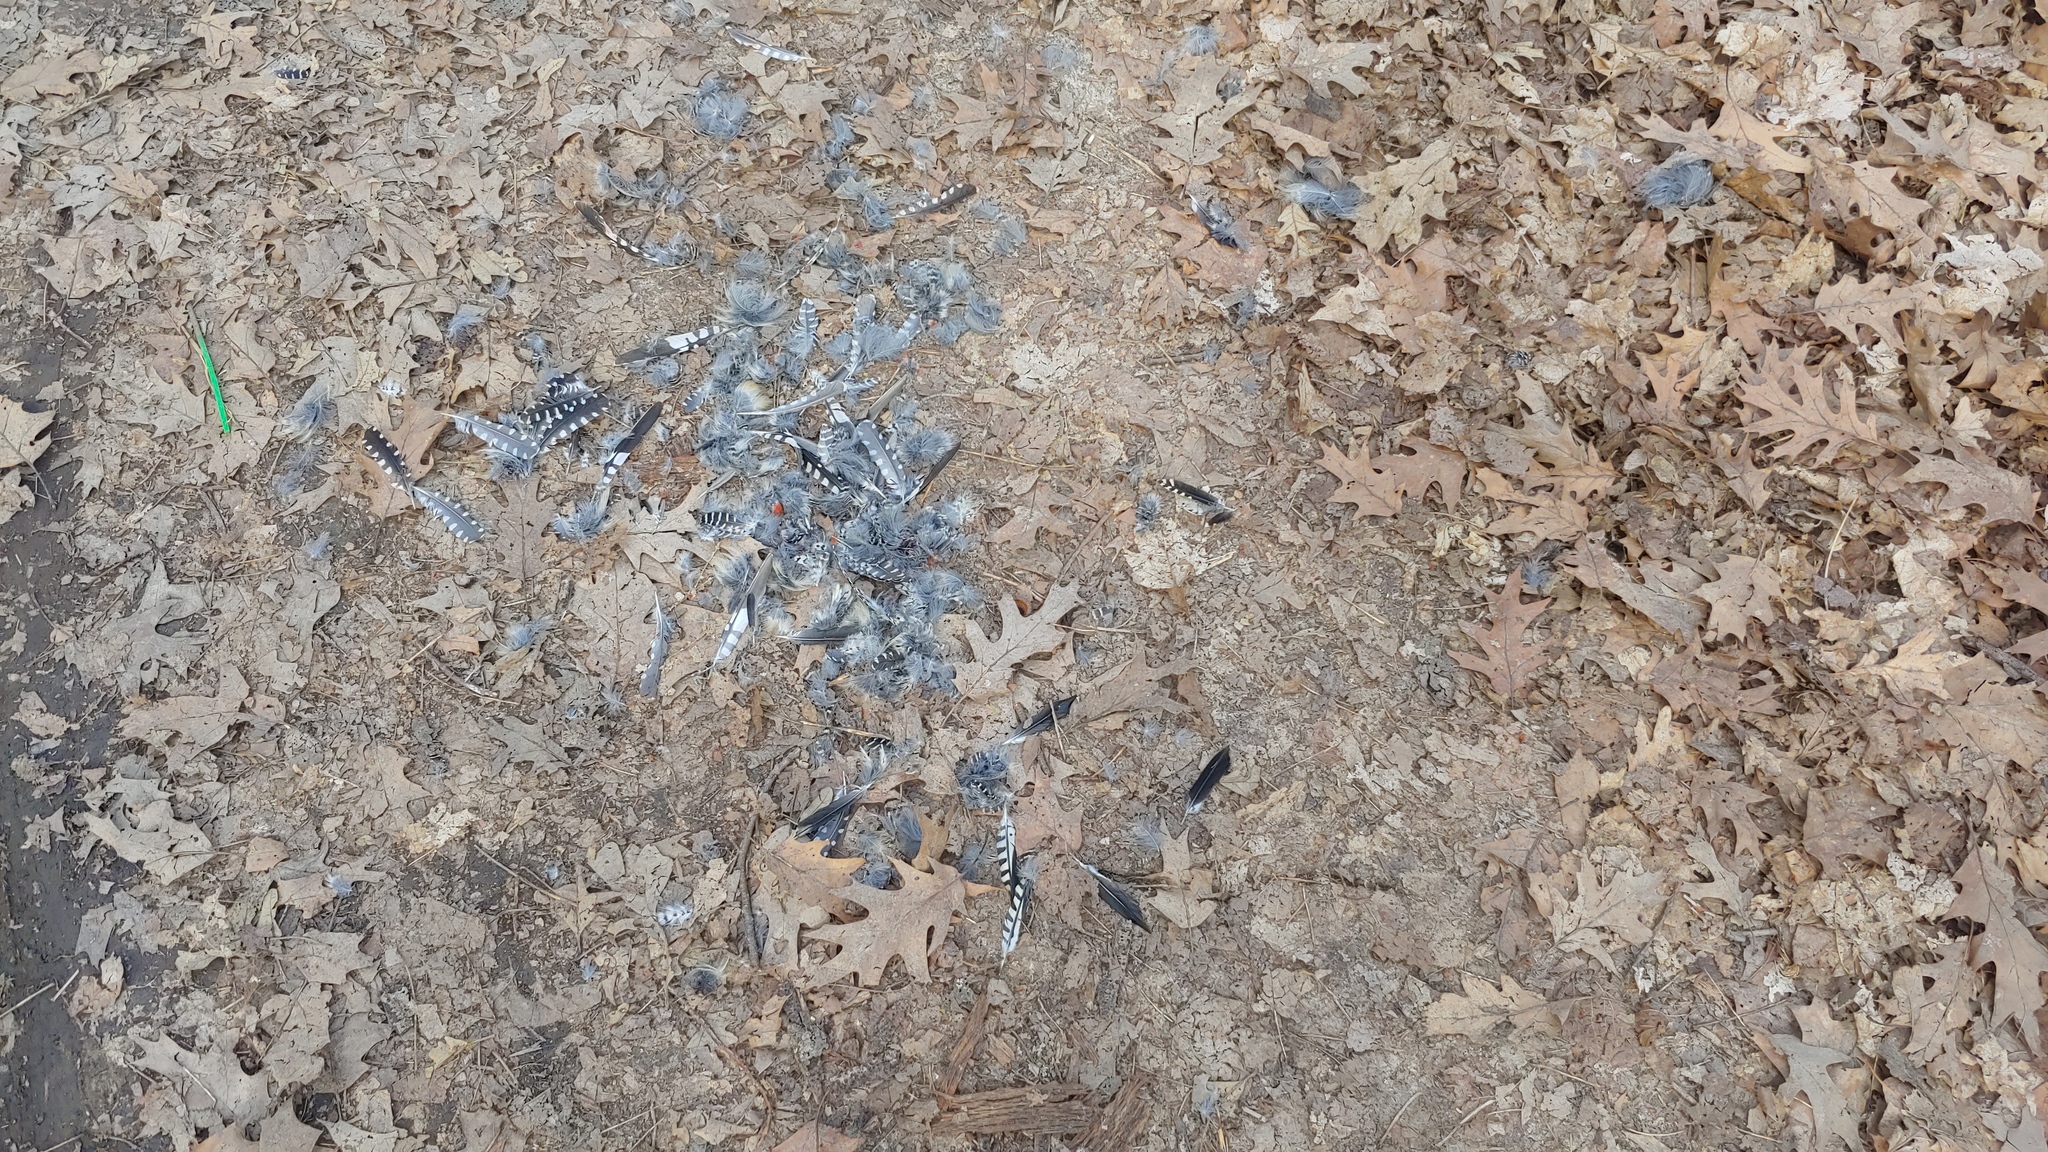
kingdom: Animalia
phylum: Chordata
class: Aves
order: Piciformes
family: Picidae
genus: Melanerpes
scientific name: Melanerpes carolinus
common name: Red-bellied woodpecker
